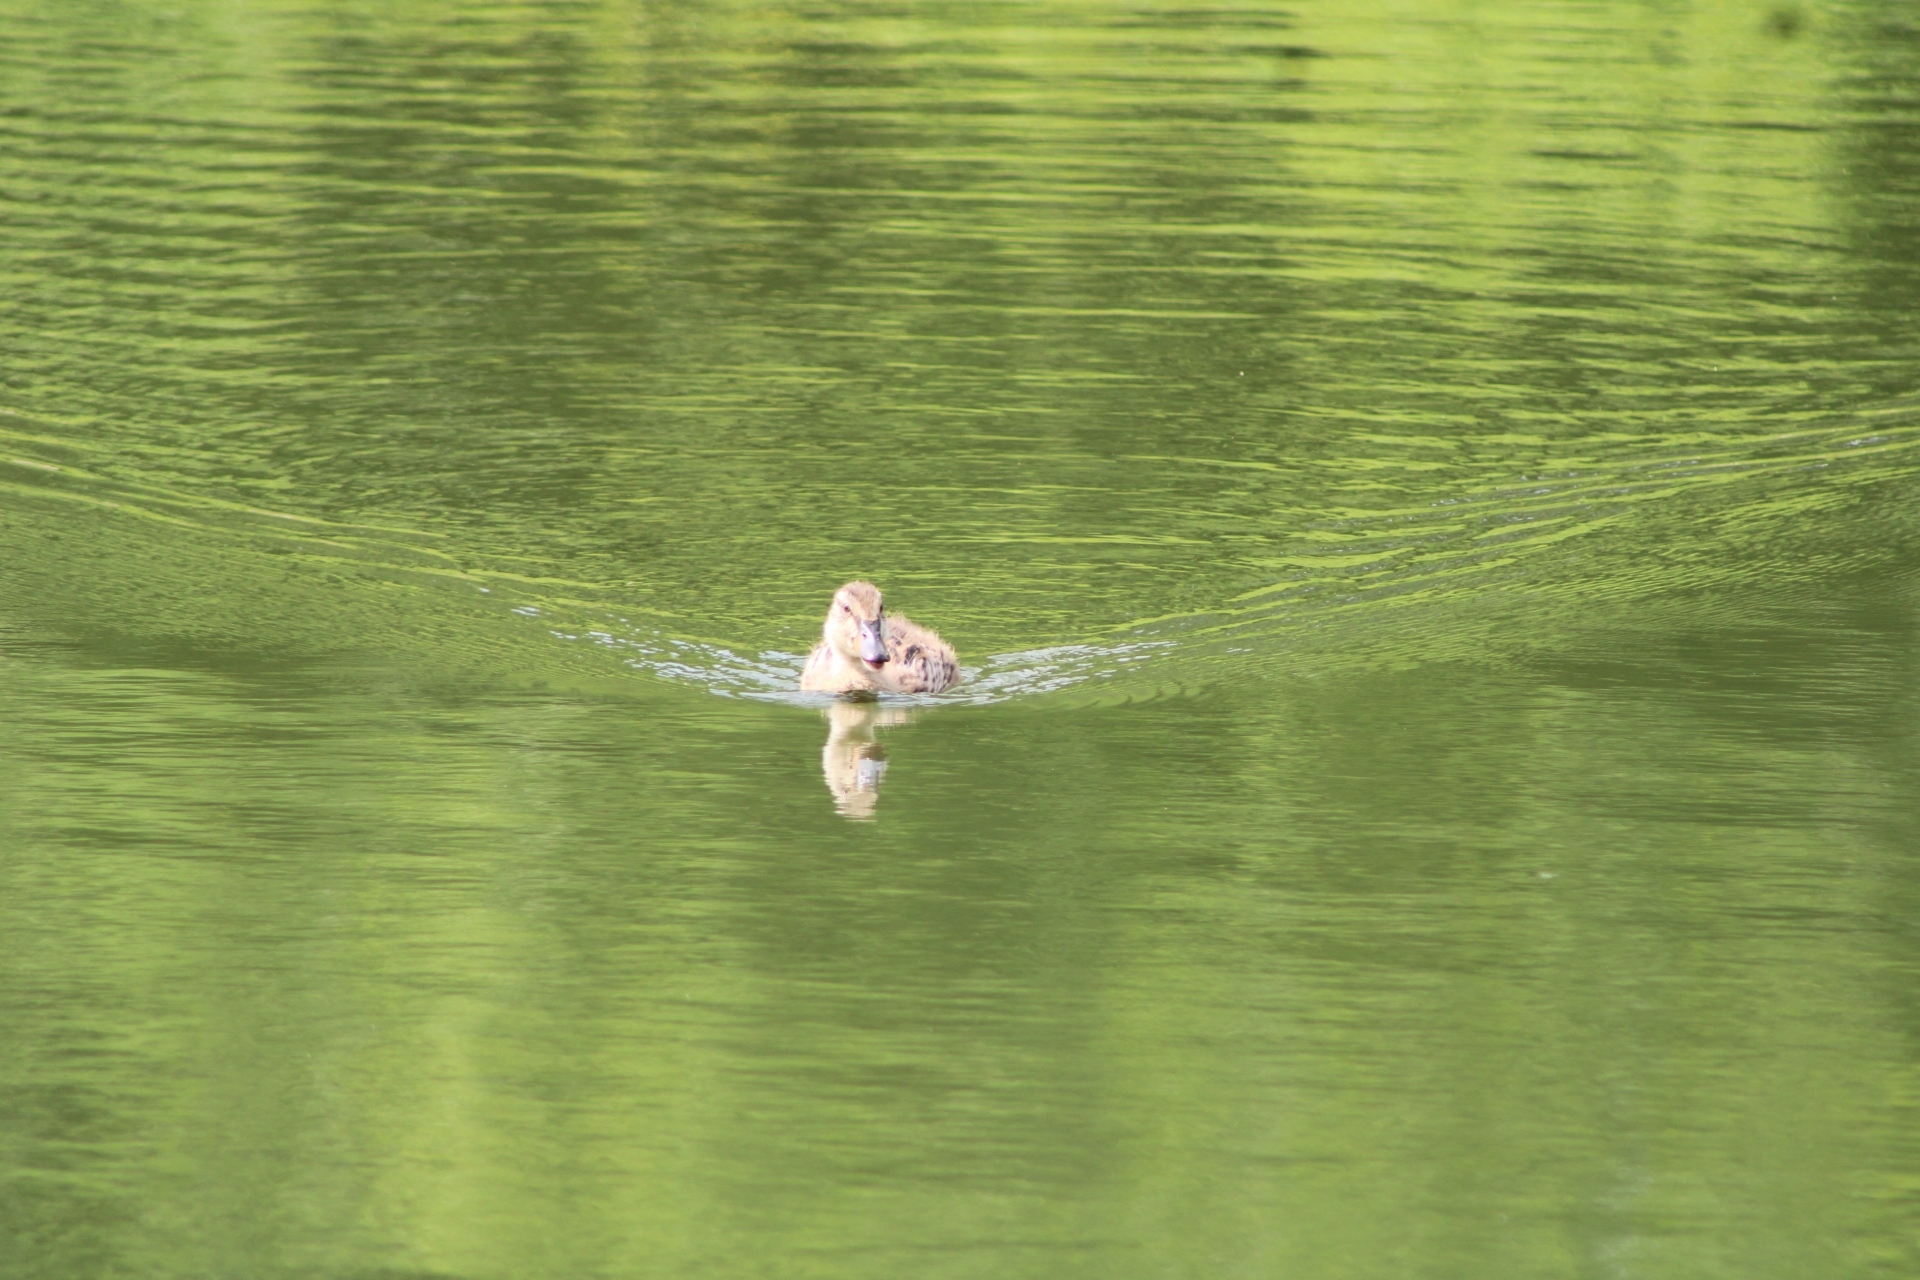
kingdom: Animalia
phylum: Chordata
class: Aves
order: Anseriformes
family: Anatidae
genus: Anas
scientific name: Anas platyrhynchos
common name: Mallard
